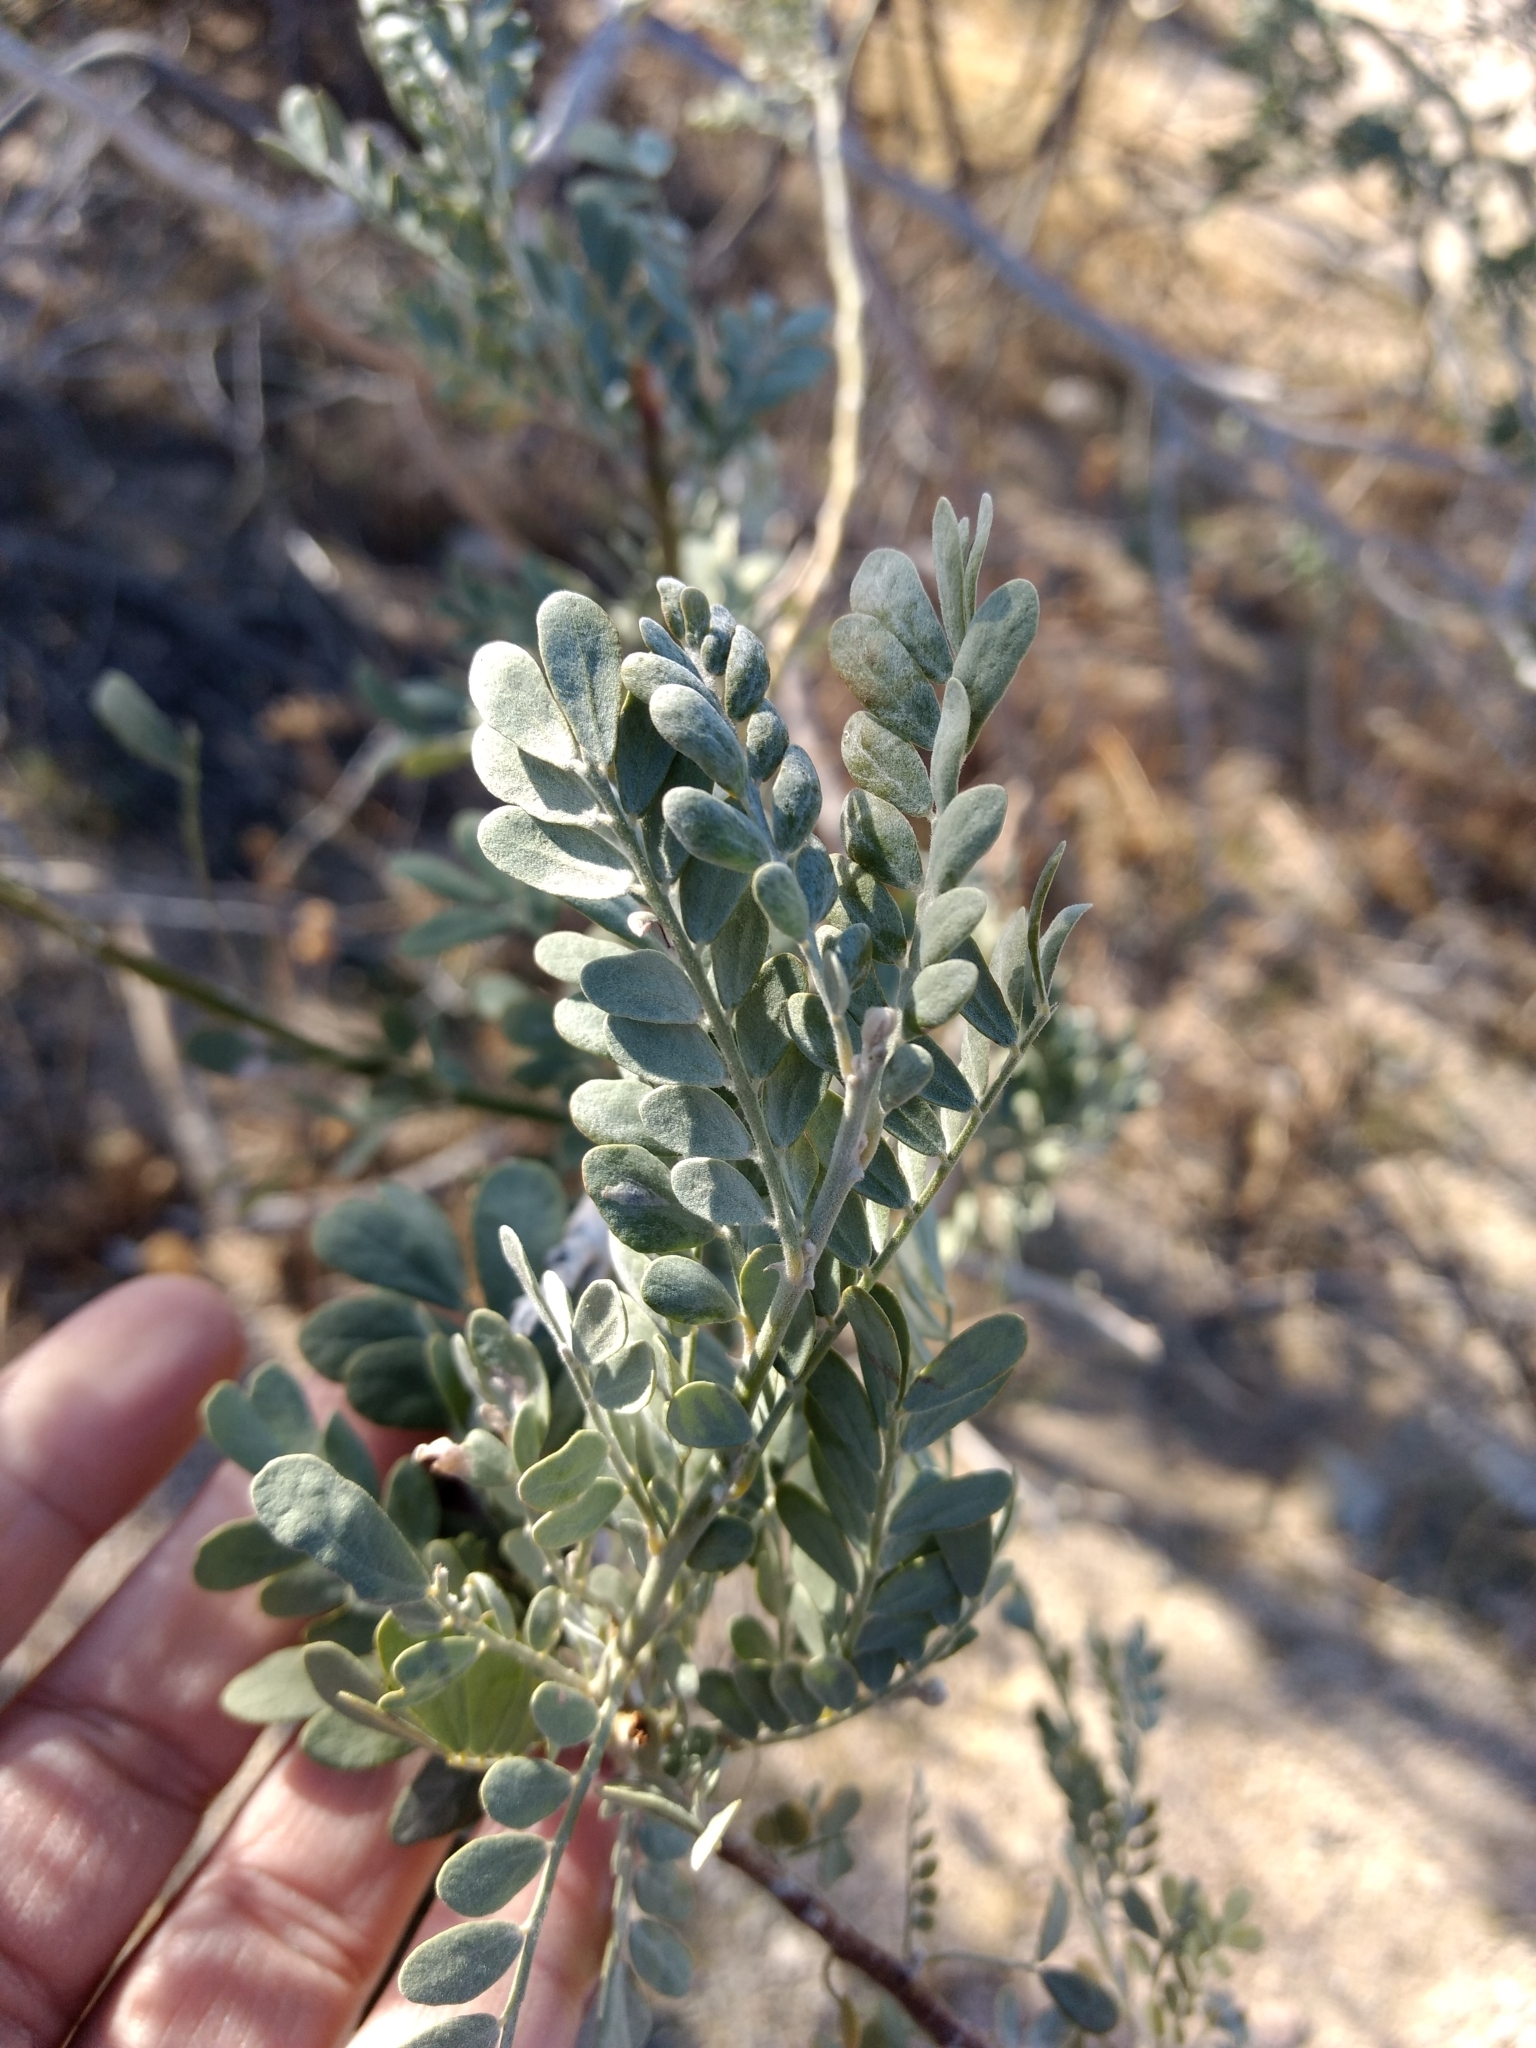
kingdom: Plantae
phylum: Tracheophyta
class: Magnoliopsida
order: Fabales
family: Fabaceae
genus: Olneya
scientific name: Olneya tesota
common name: Desert ironwood
